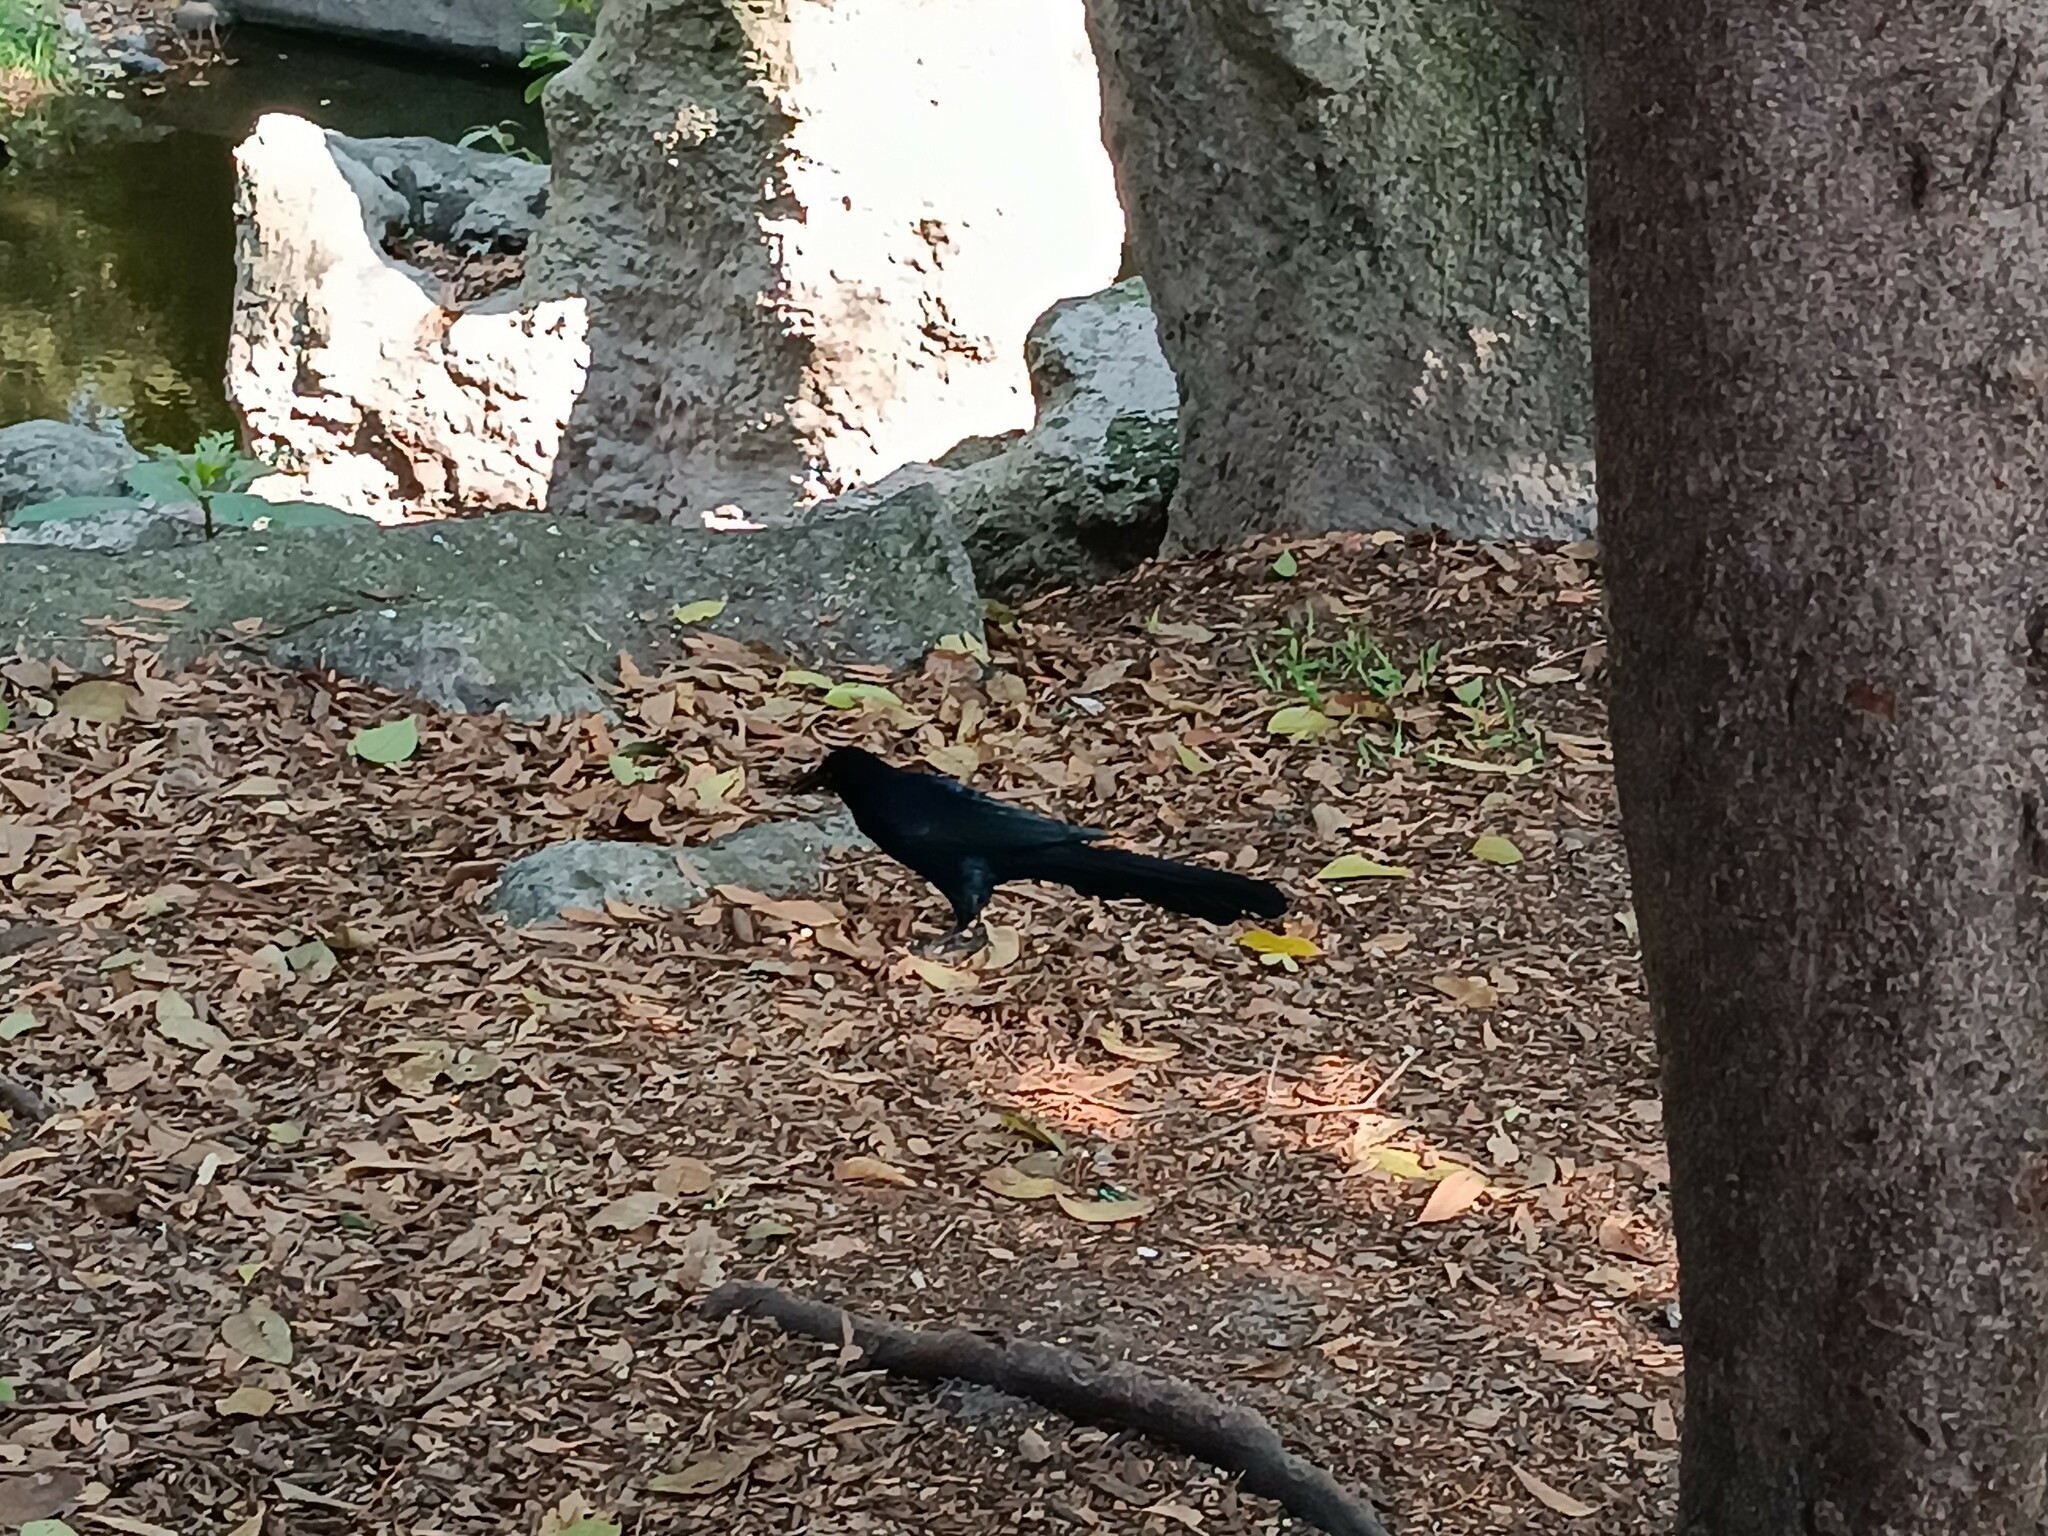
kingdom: Animalia
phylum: Chordata
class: Aves
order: Passeriformes
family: Icteridae
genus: Quiscalus
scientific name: Quiscalus mexicanus
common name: Great-tailed grackle
